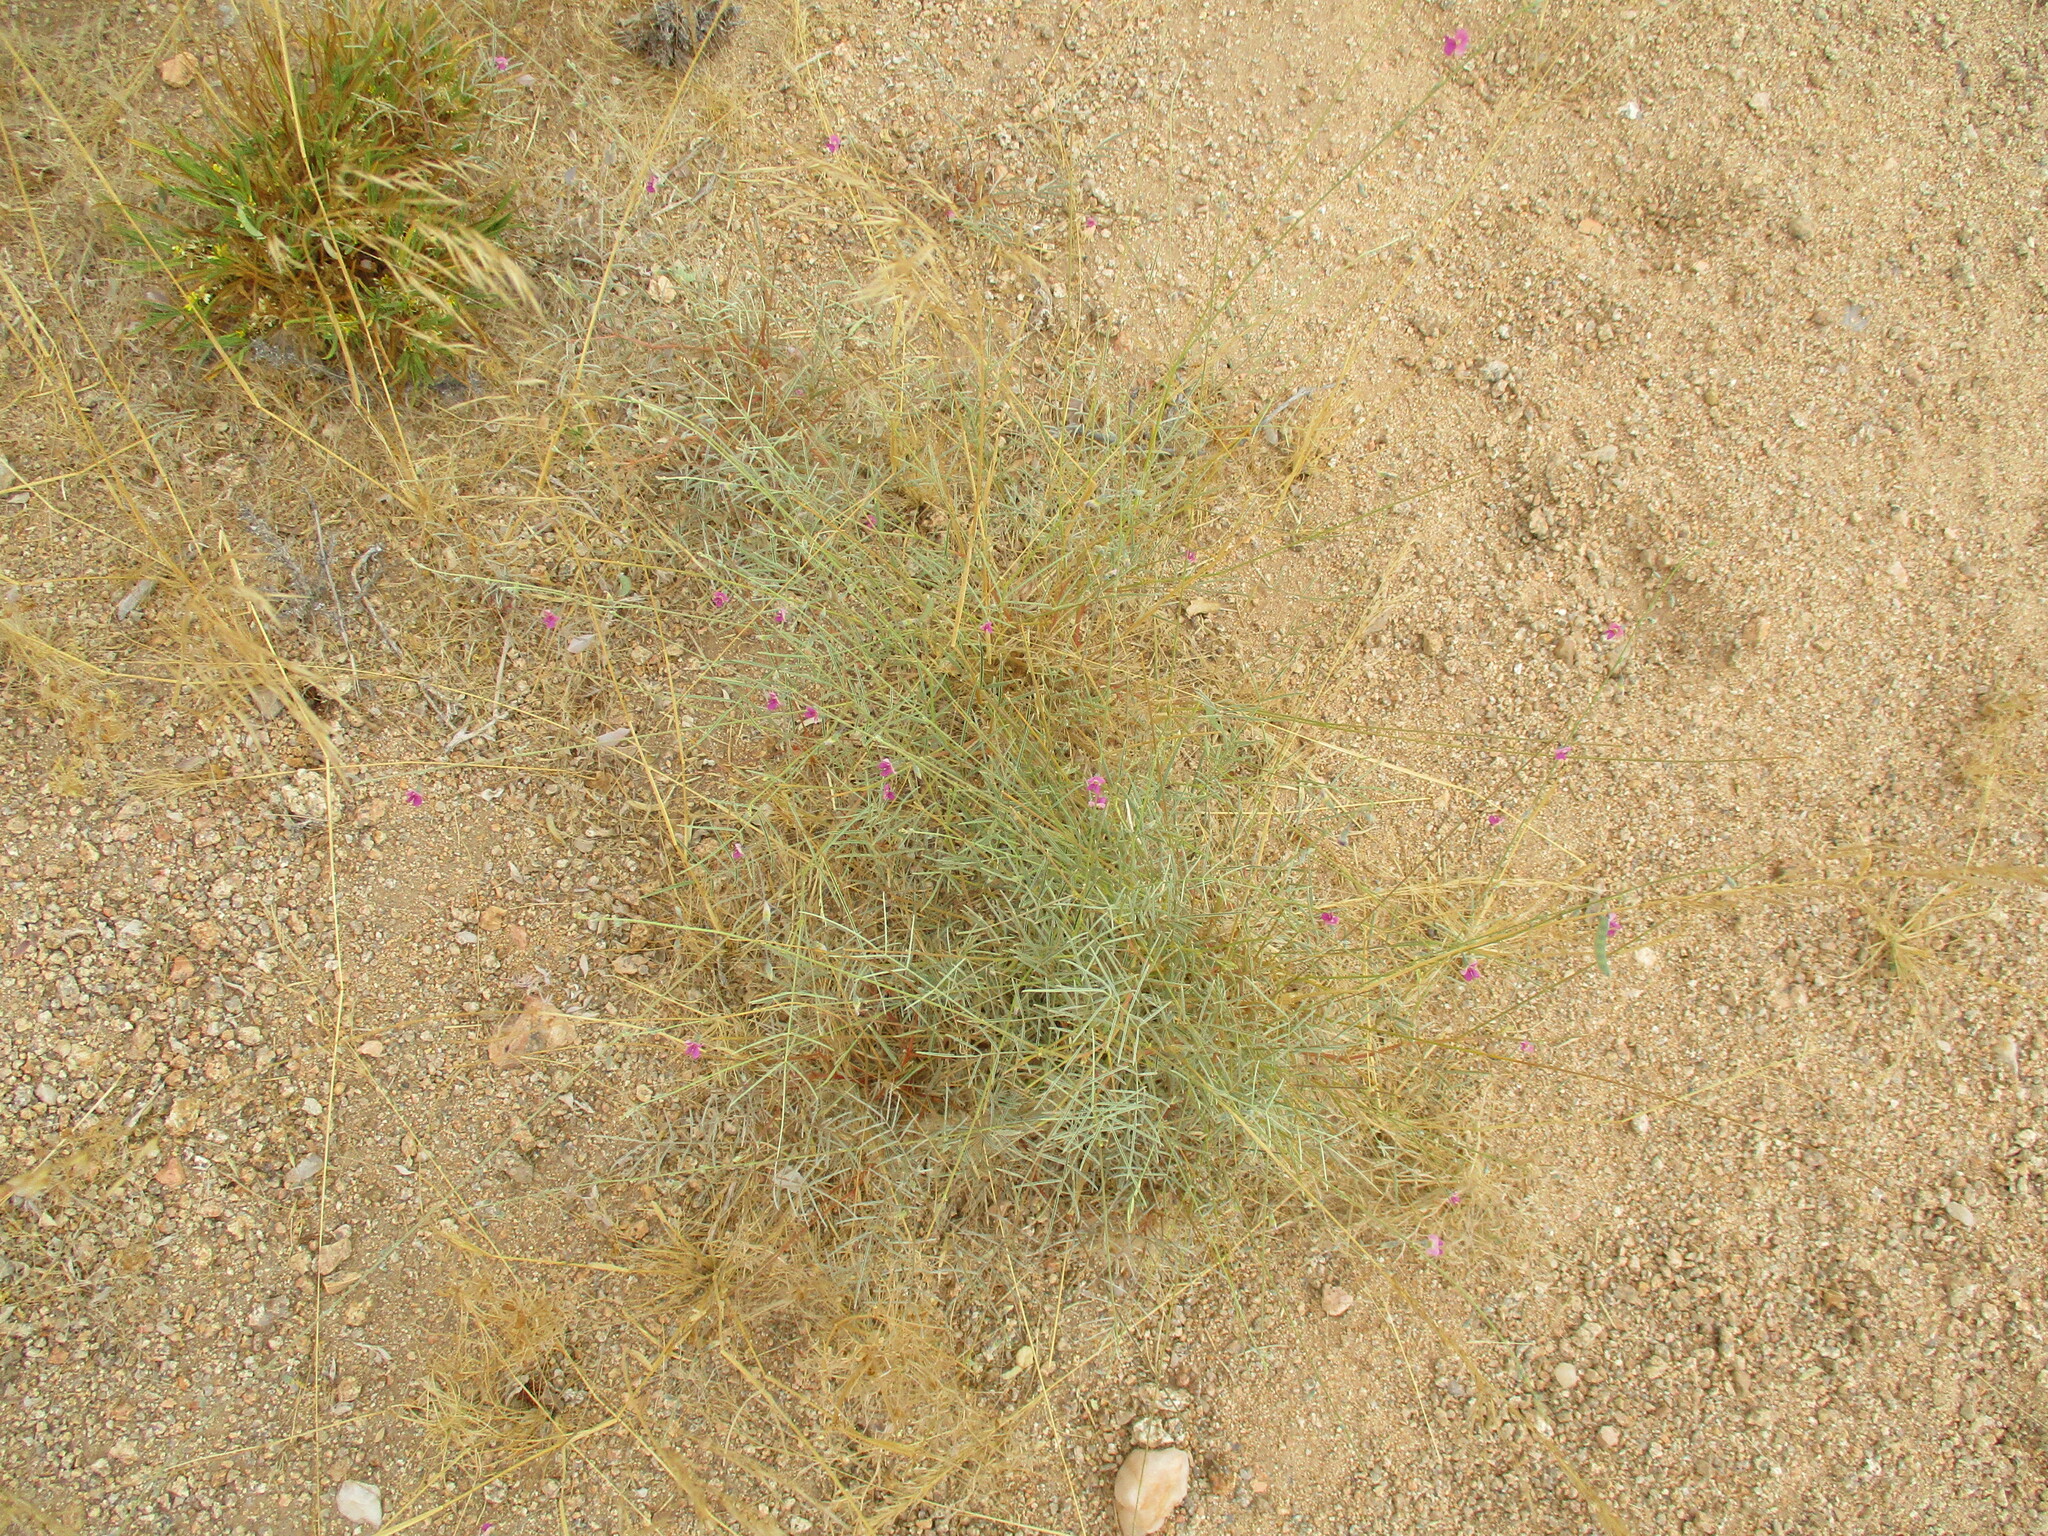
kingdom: Plantae
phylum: Tracheophyta
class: Magnoliopsida
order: Fabales
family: Fabaceae
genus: Tephrosia
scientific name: Tephrosia dregeana
